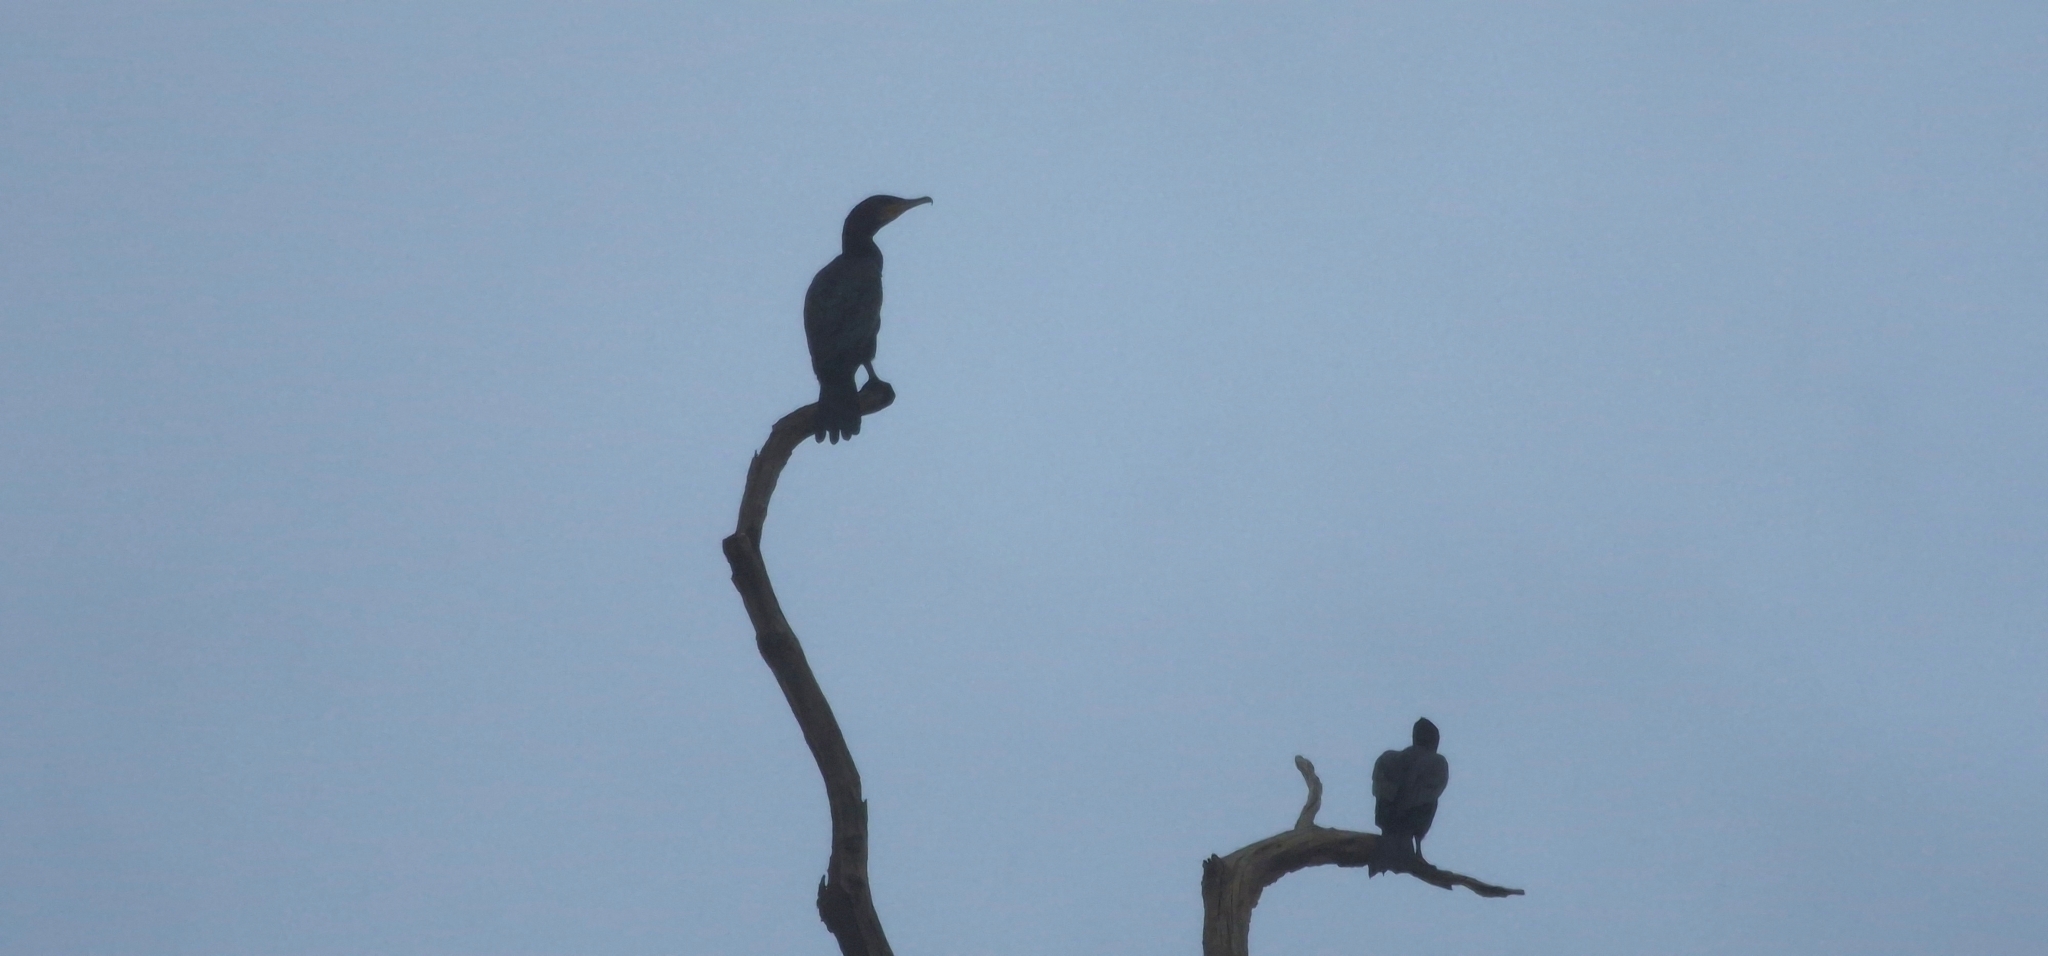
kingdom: Animalia
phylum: Chordata
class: Aves
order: Suliformes
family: Phalacrocoracidae
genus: Phalacrocorax
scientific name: Phalacrocorax carbo
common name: Great cormorant
